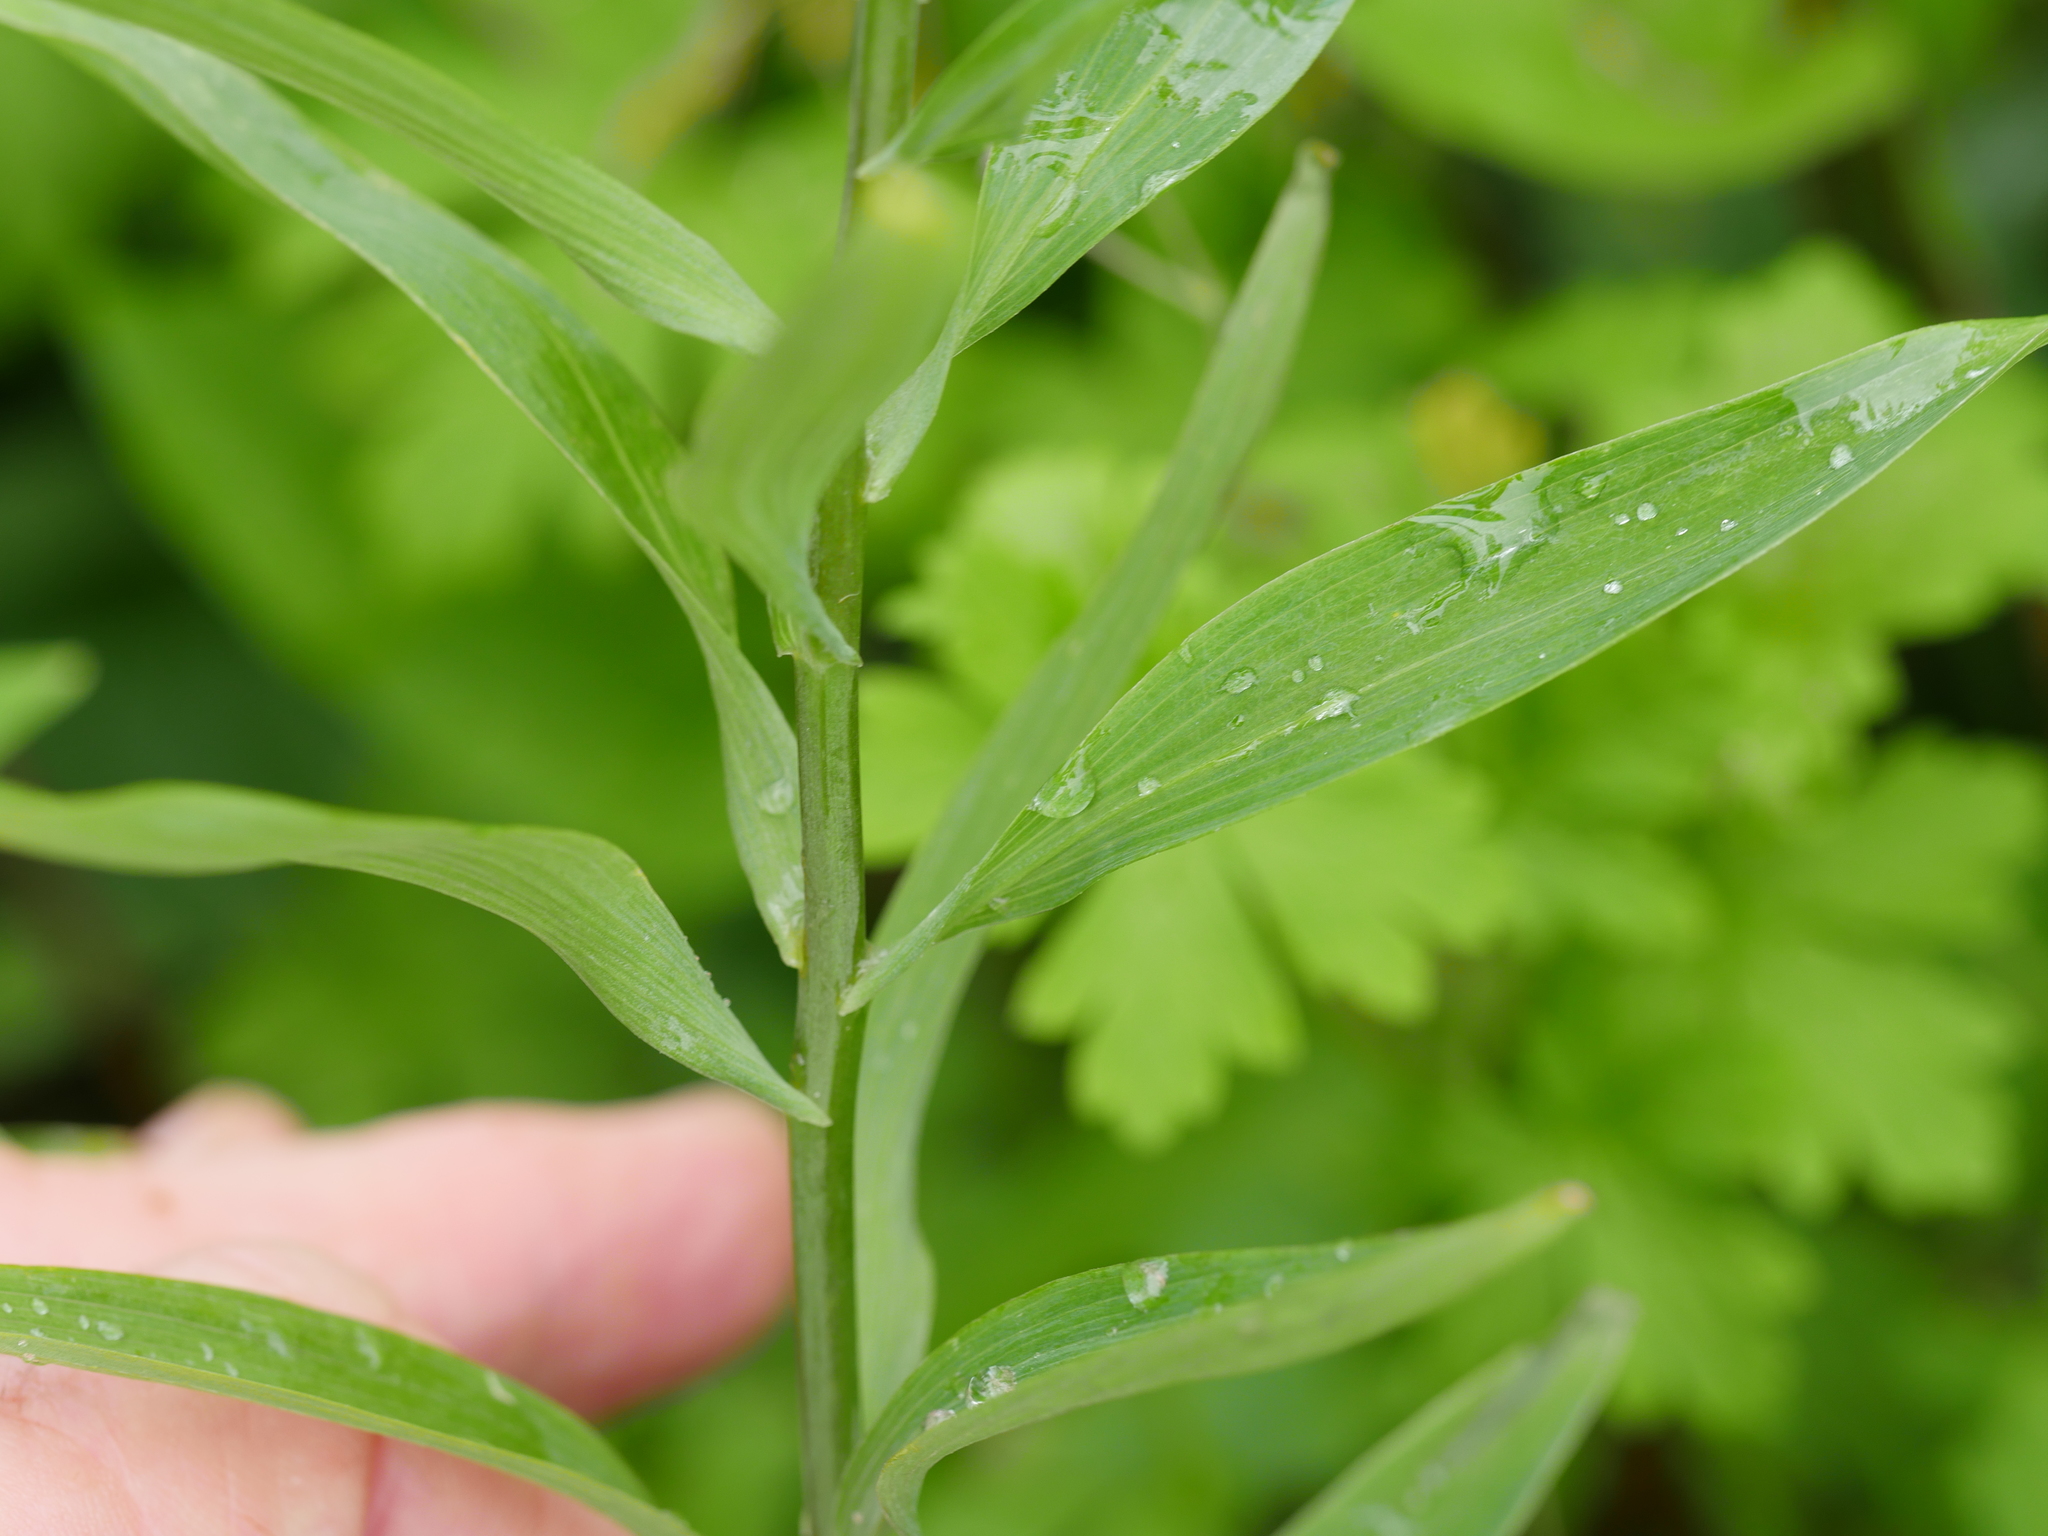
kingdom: Plantae
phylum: Tracheophyta
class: Liliopsida
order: Liliales
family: Alstroemeriaceae
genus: Alstroemeria
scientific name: Alstroemeria aurea
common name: Peruvian lily
